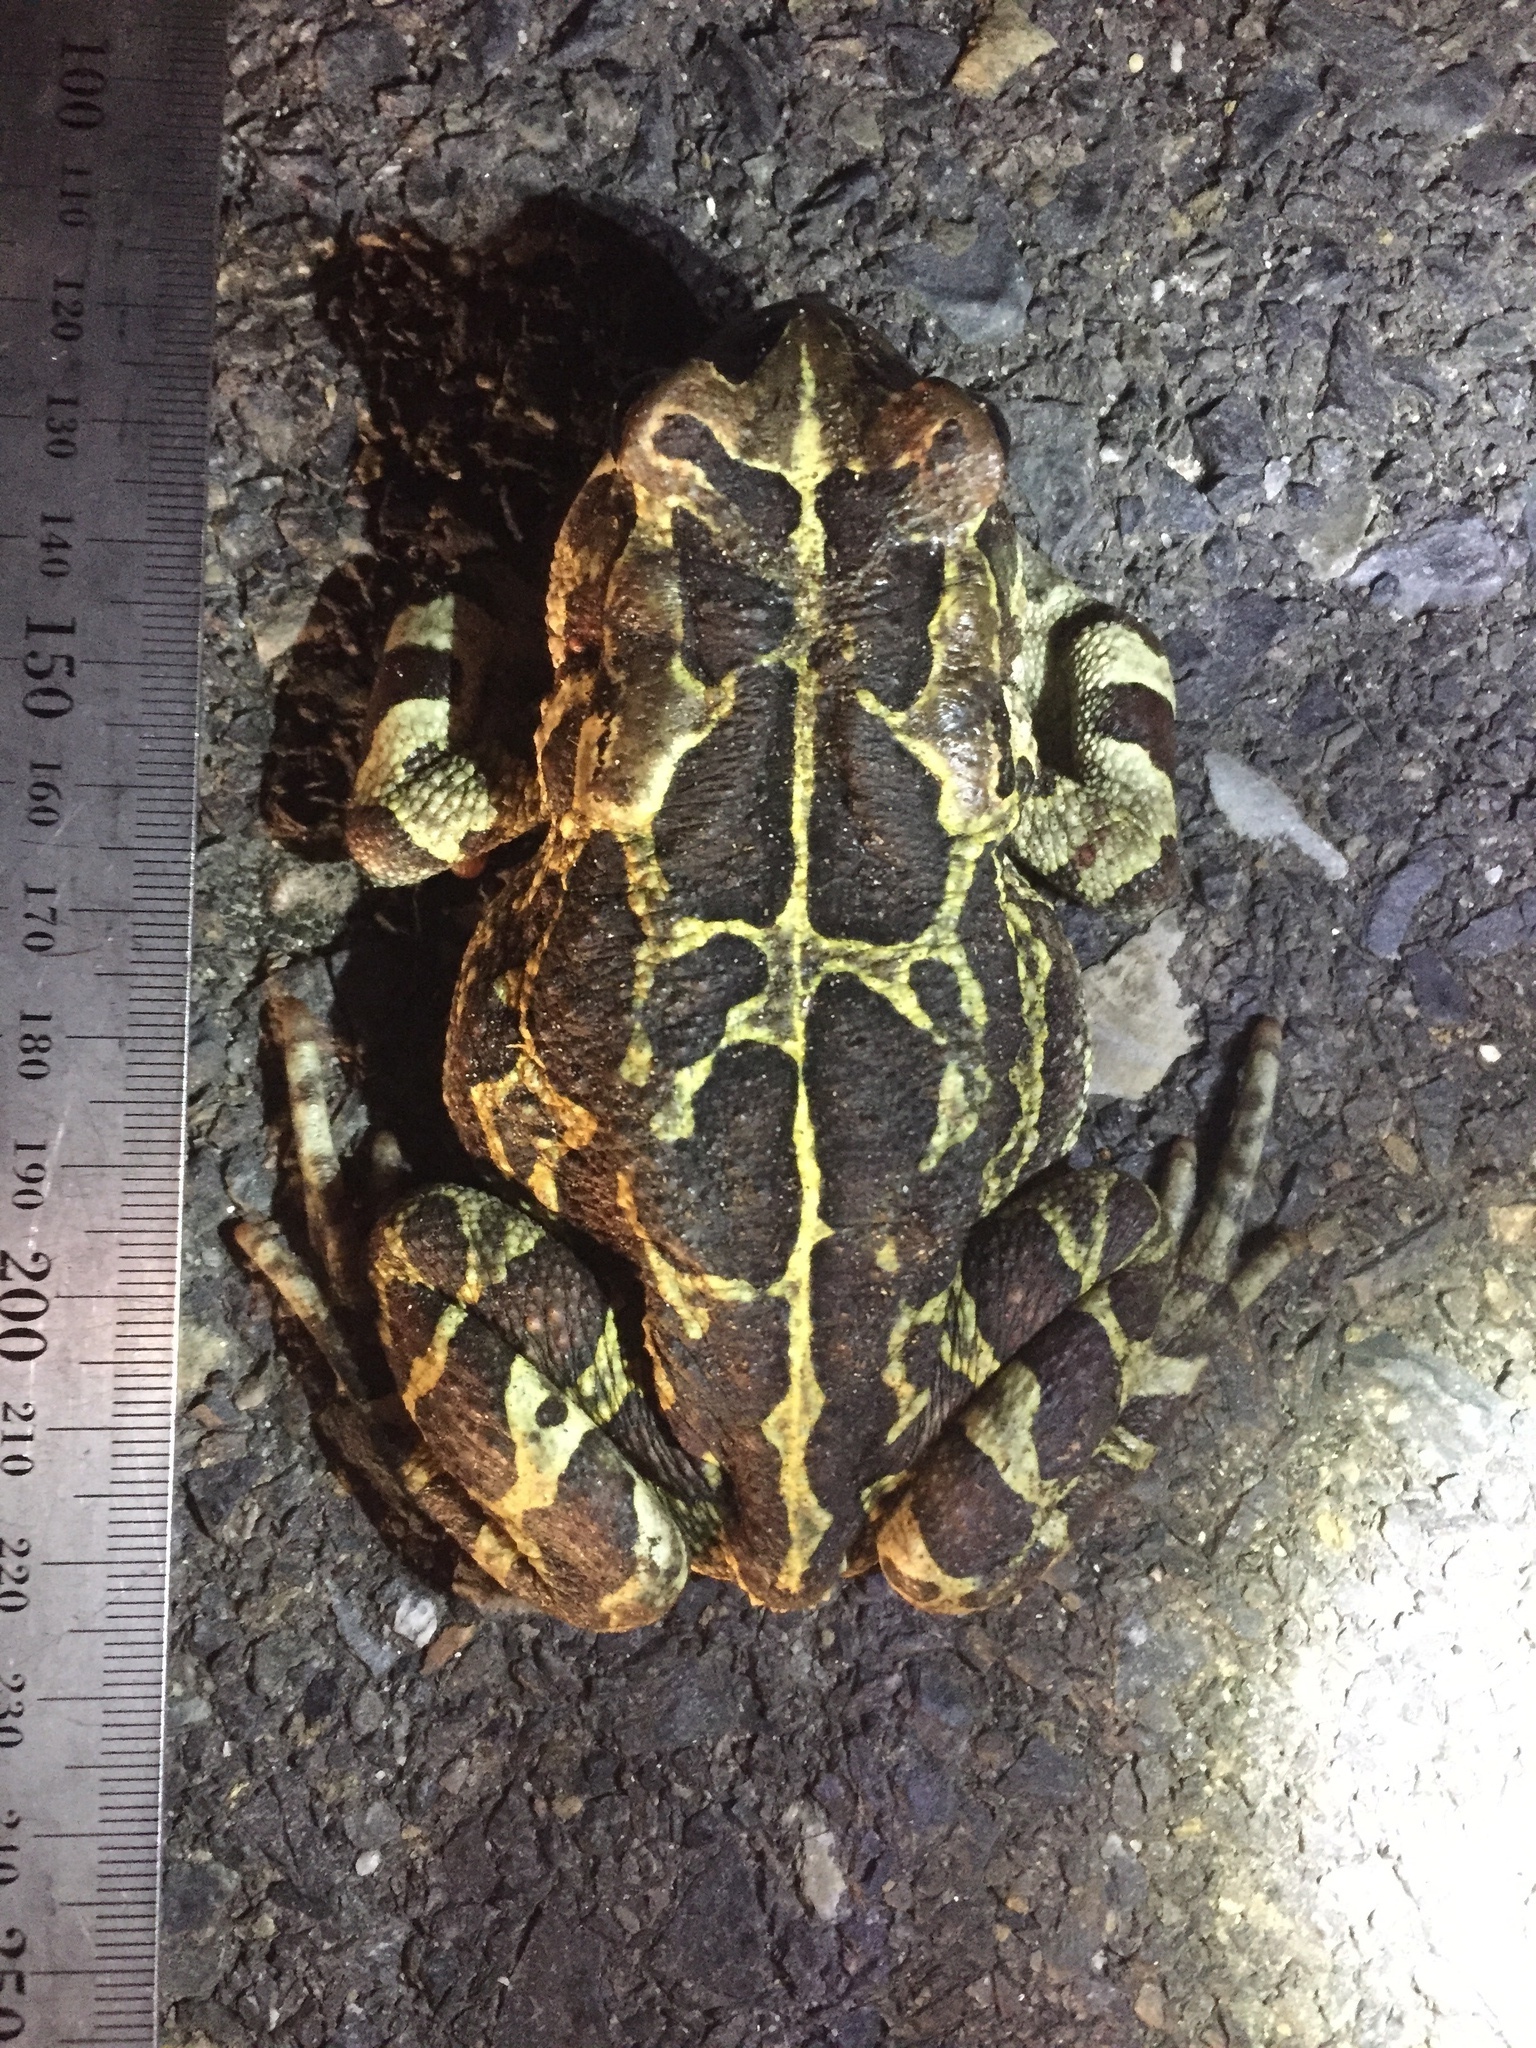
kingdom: Animalia
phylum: Chordata
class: Amphibia
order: Anura
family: Bufonidae
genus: Sclerophrys
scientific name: Sclerophrys pantherina
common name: Panther toad
